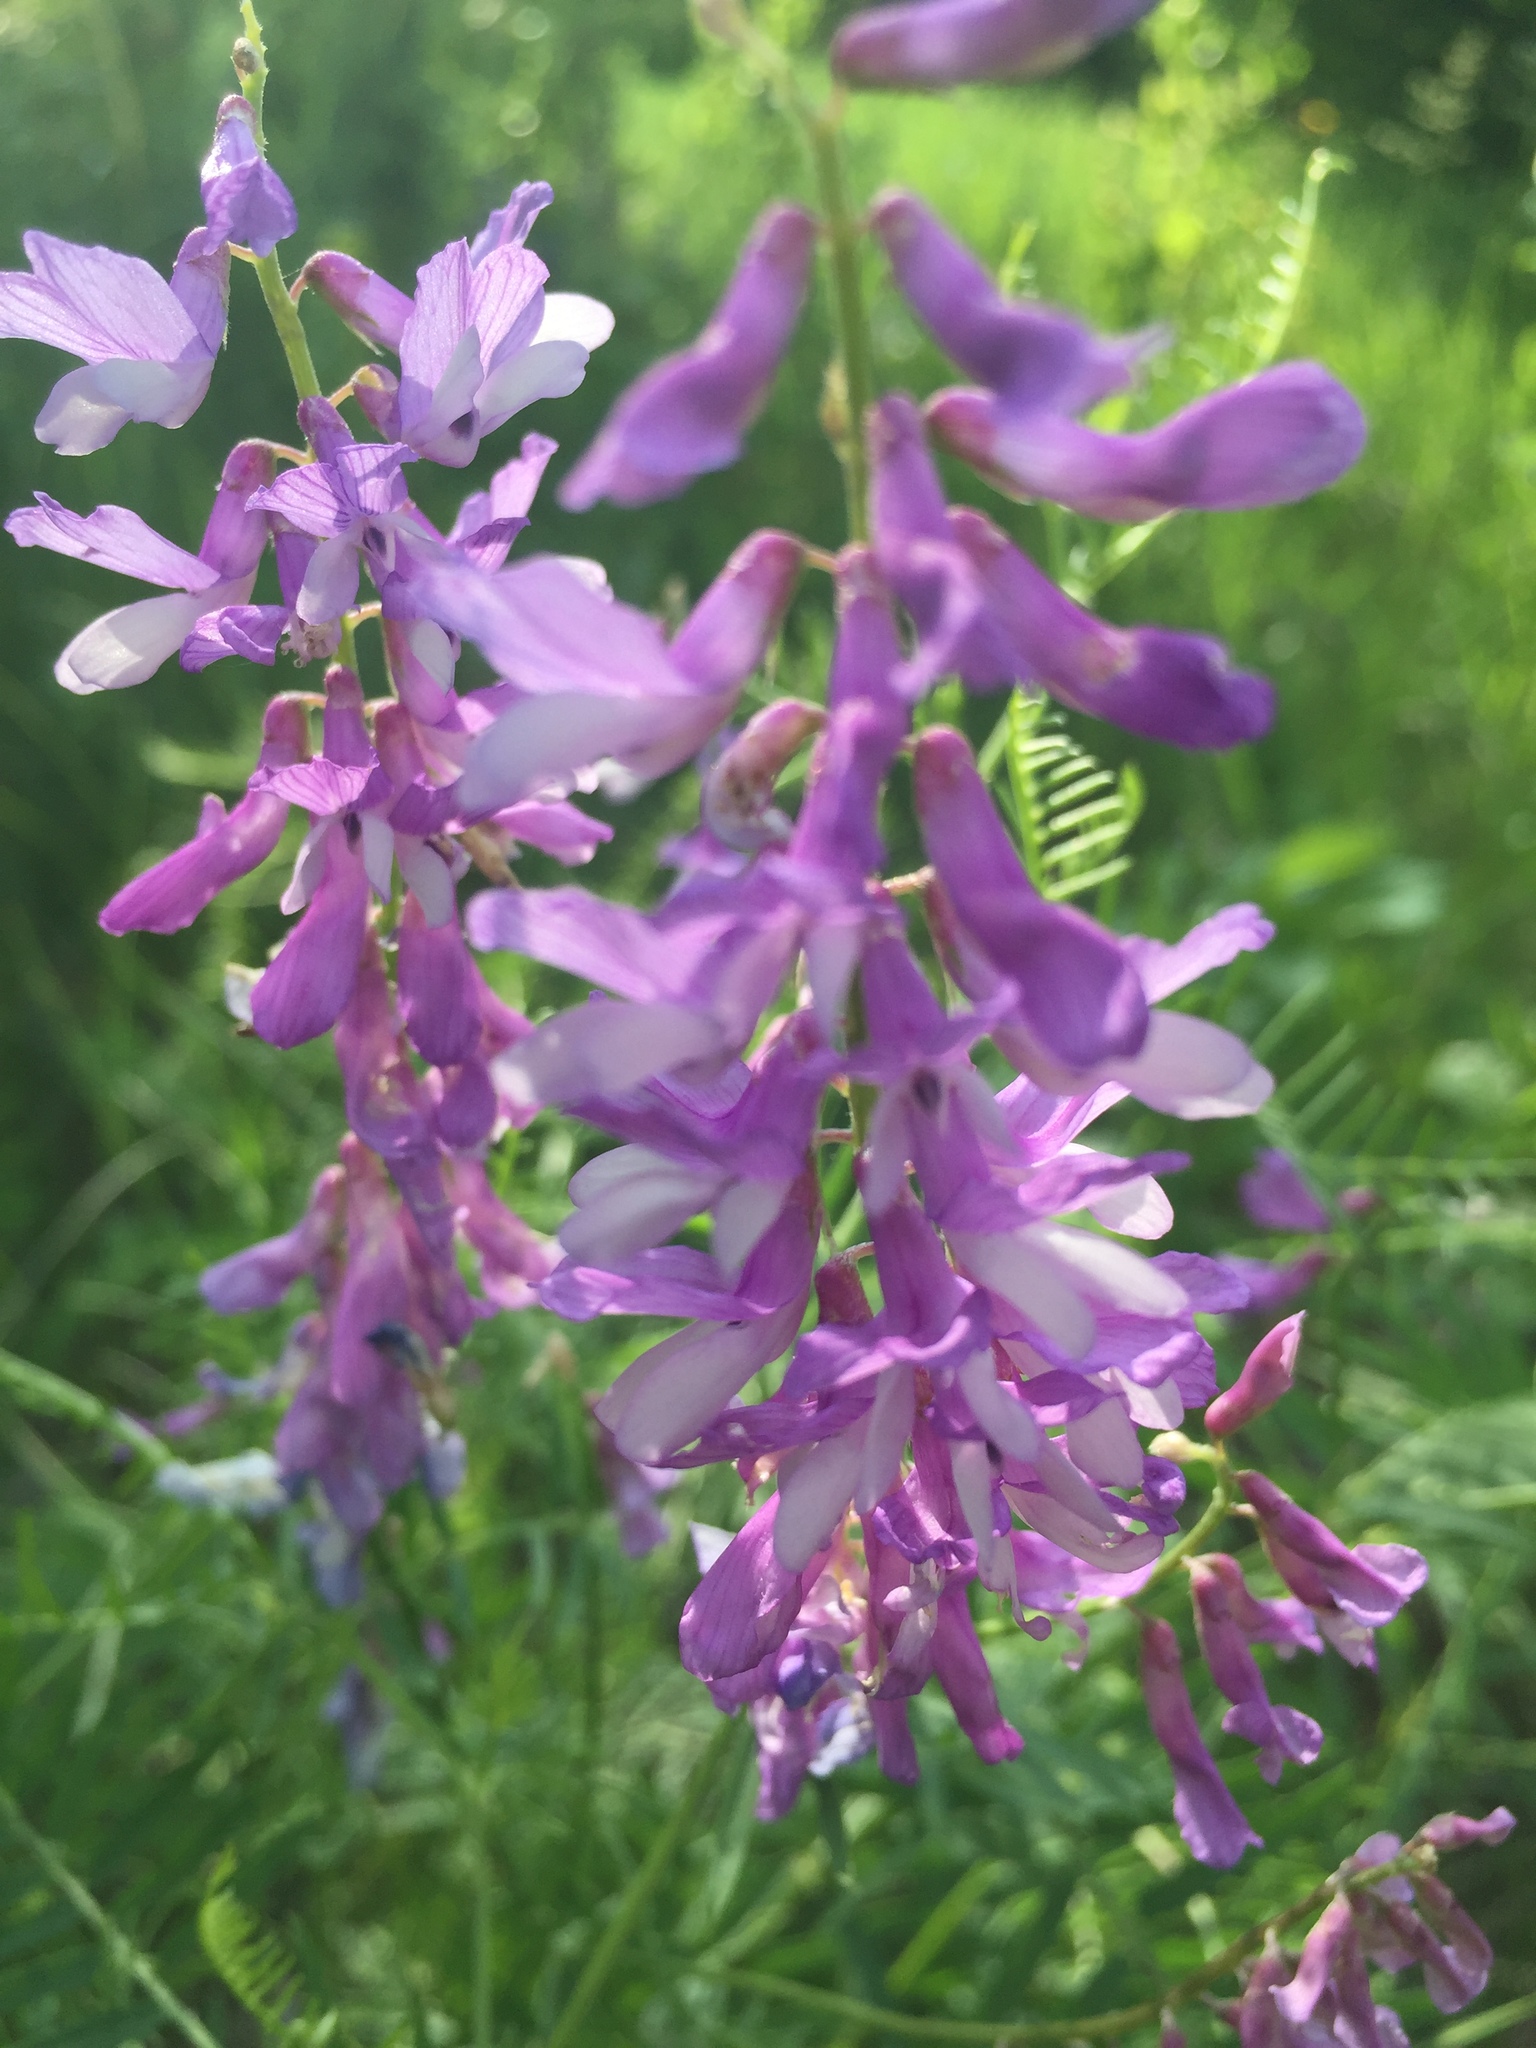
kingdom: Plantae
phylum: Tracheophyta
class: Magnoliopsida
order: Fabales
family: Fabaceae
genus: Vicia
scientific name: Vicia tenuifolia
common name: Fine-leaved vetch
